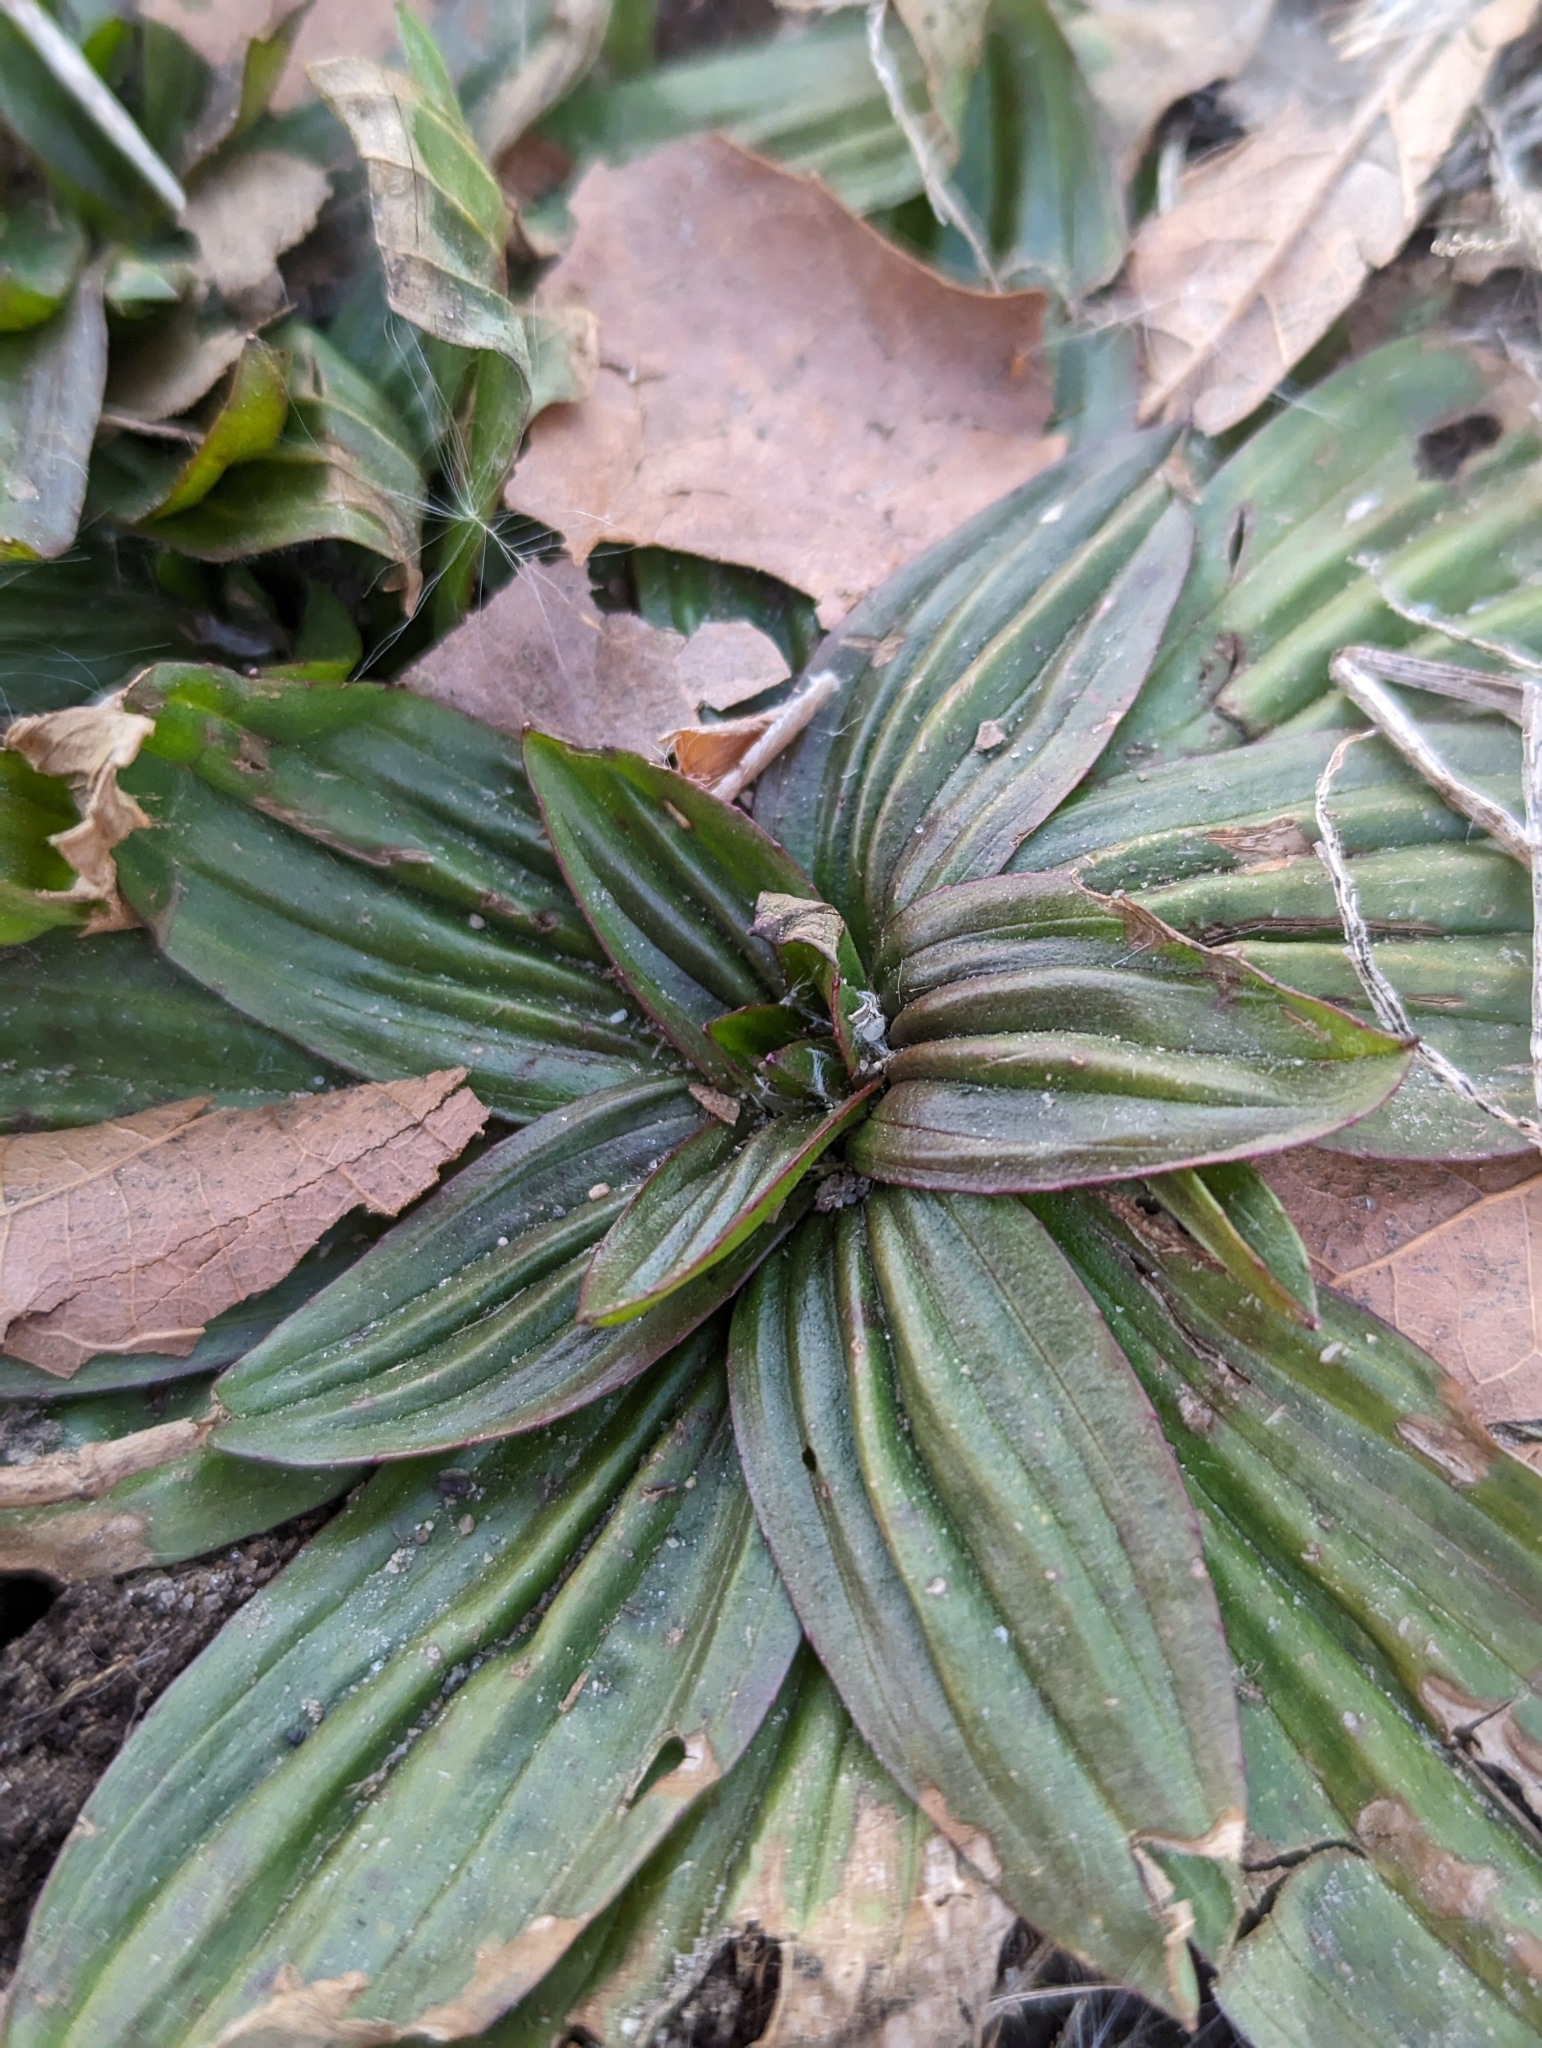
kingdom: Plantae
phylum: Tracheophyta
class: Magnoliopsida
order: Lamiales
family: Plantaginaceae
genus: Plantago
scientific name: Plantago lanceolata
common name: Ribwort plantain
